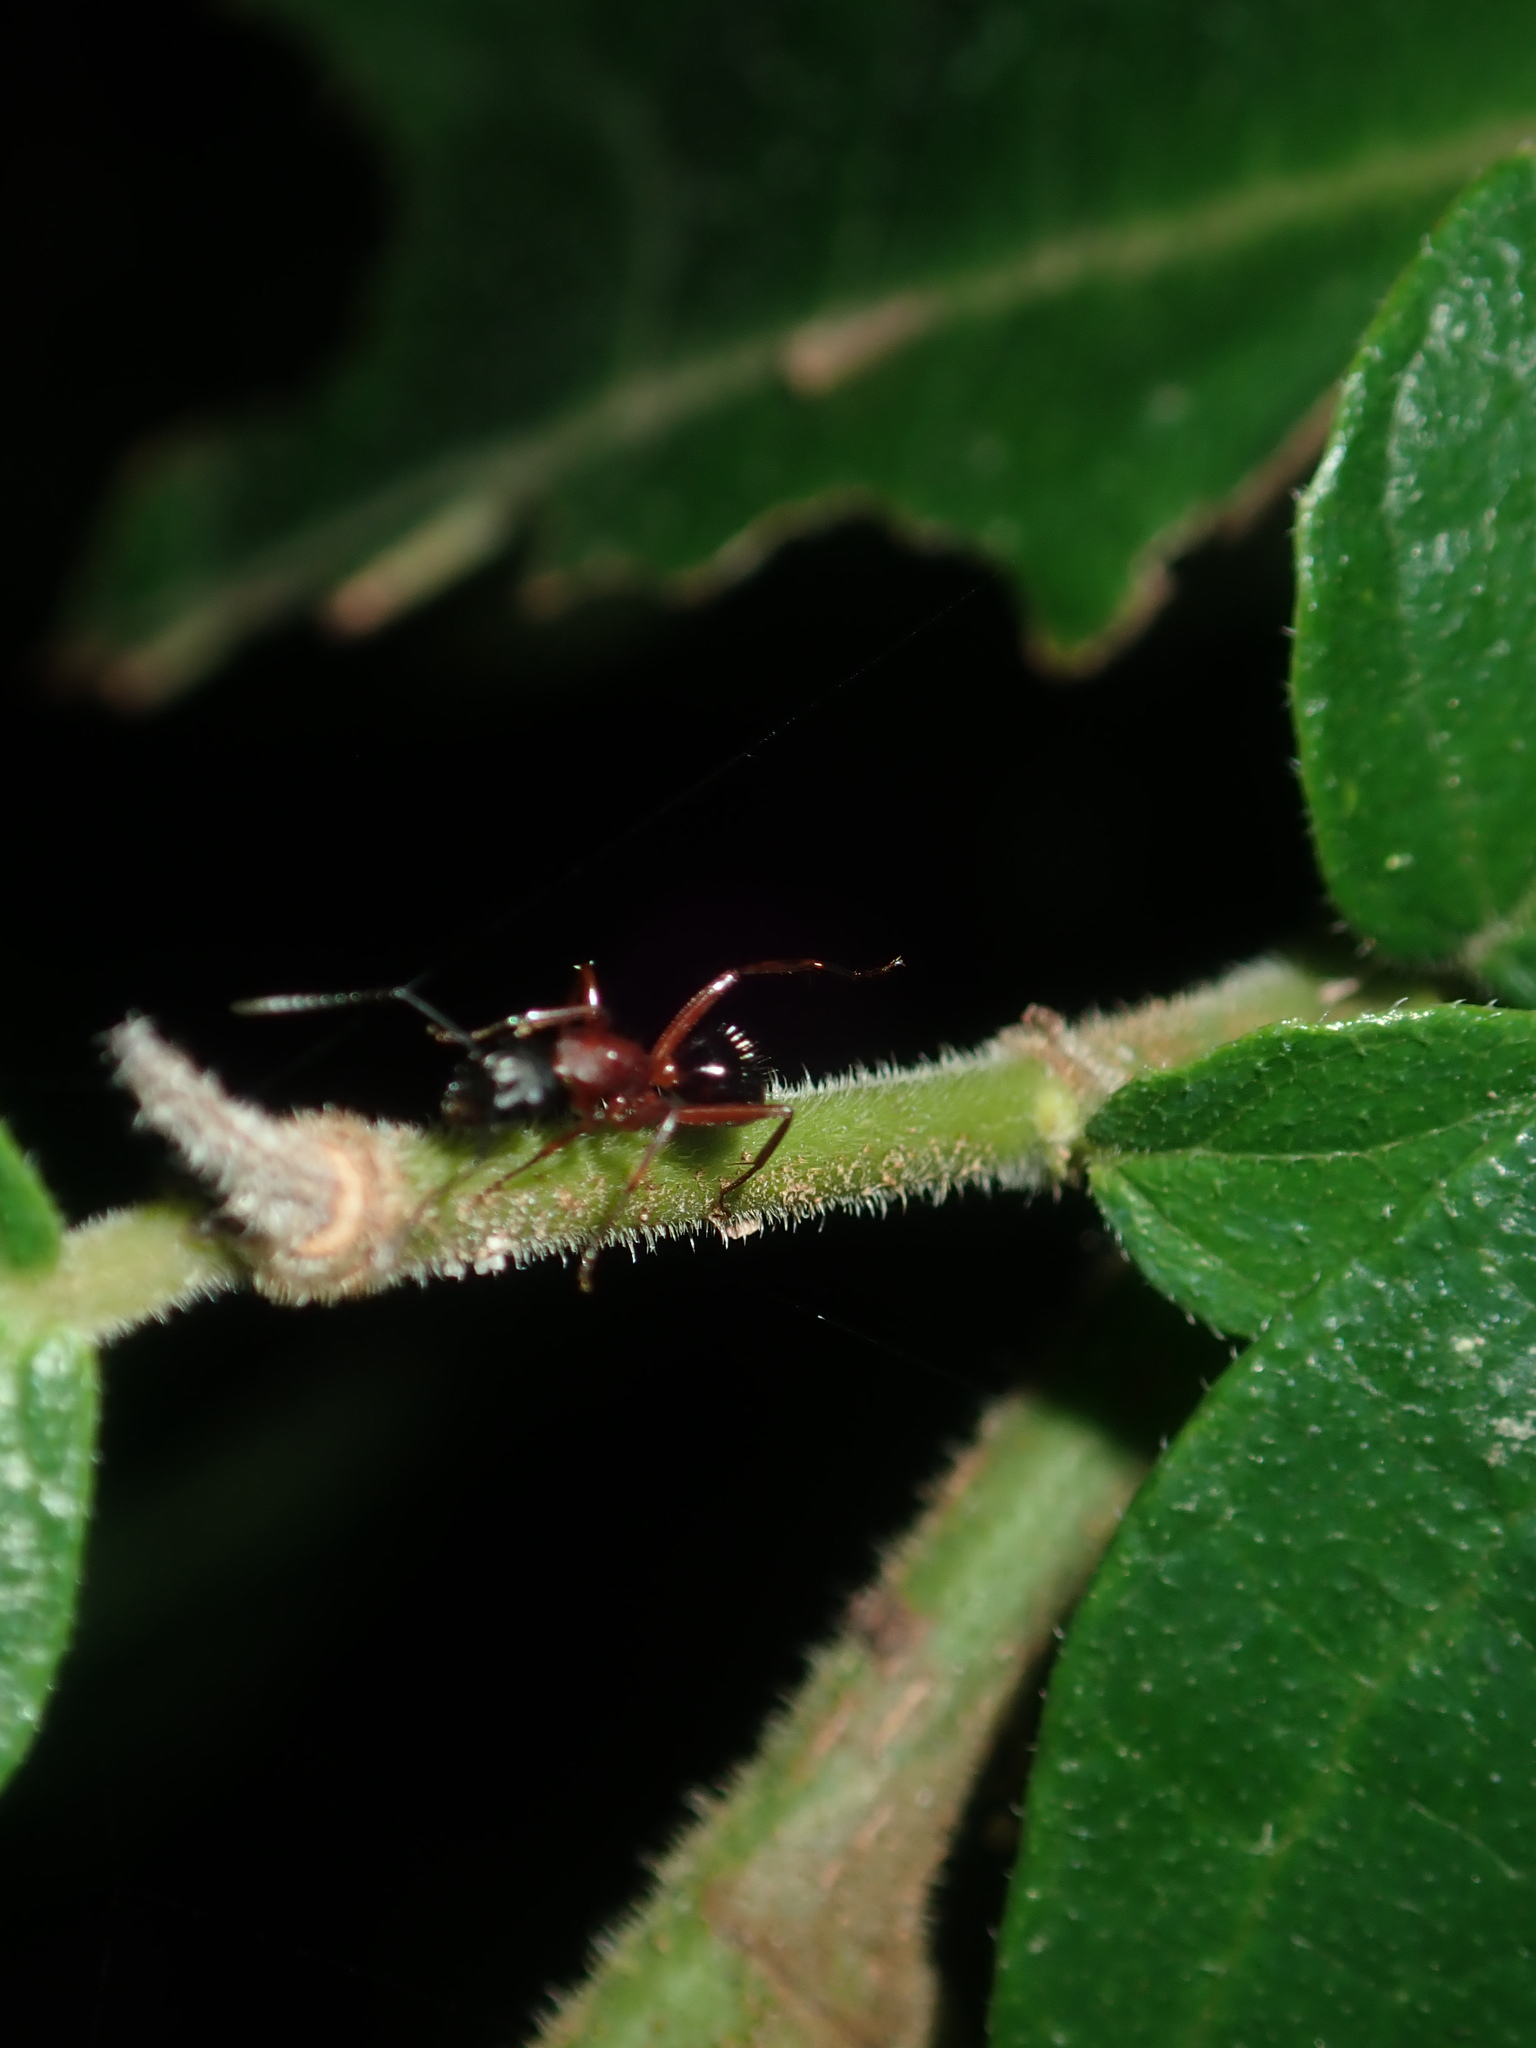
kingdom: Animalia
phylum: Arthropoda
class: Insecta
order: Hymenoptera
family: Formicidae
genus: Camponotus
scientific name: Camponotus innexus
